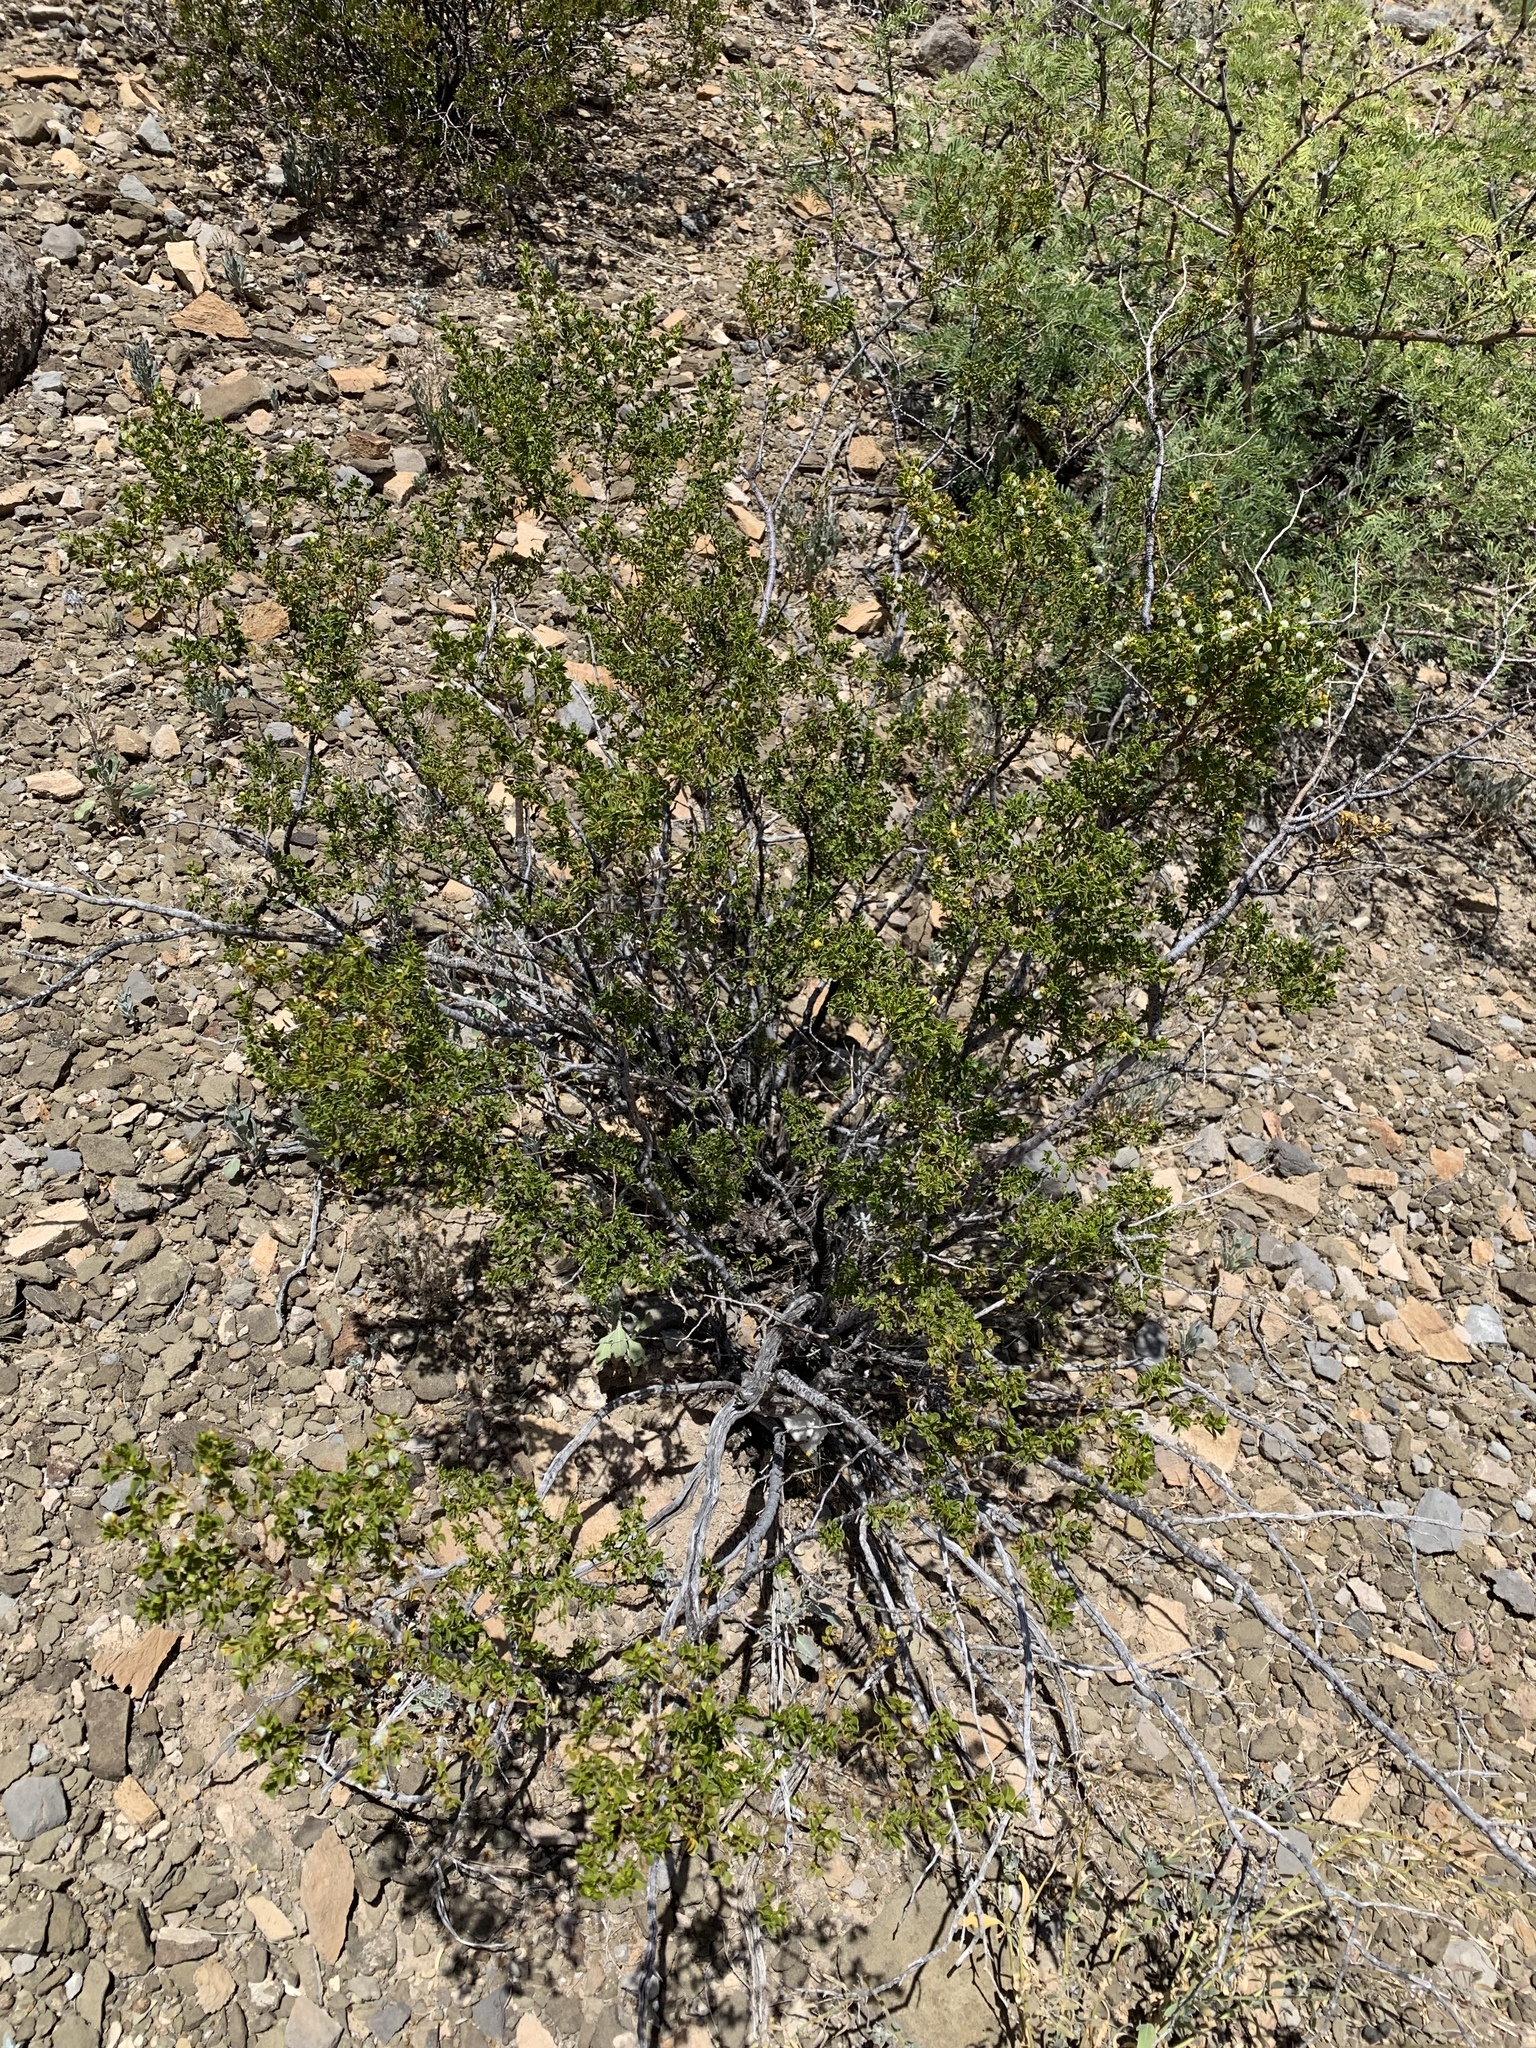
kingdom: Plantae
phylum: Tracheophyta
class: Magnoliopsida
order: Zygophyllales
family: Zygophyllaceae
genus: Larrea
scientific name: Larrea tridentata
